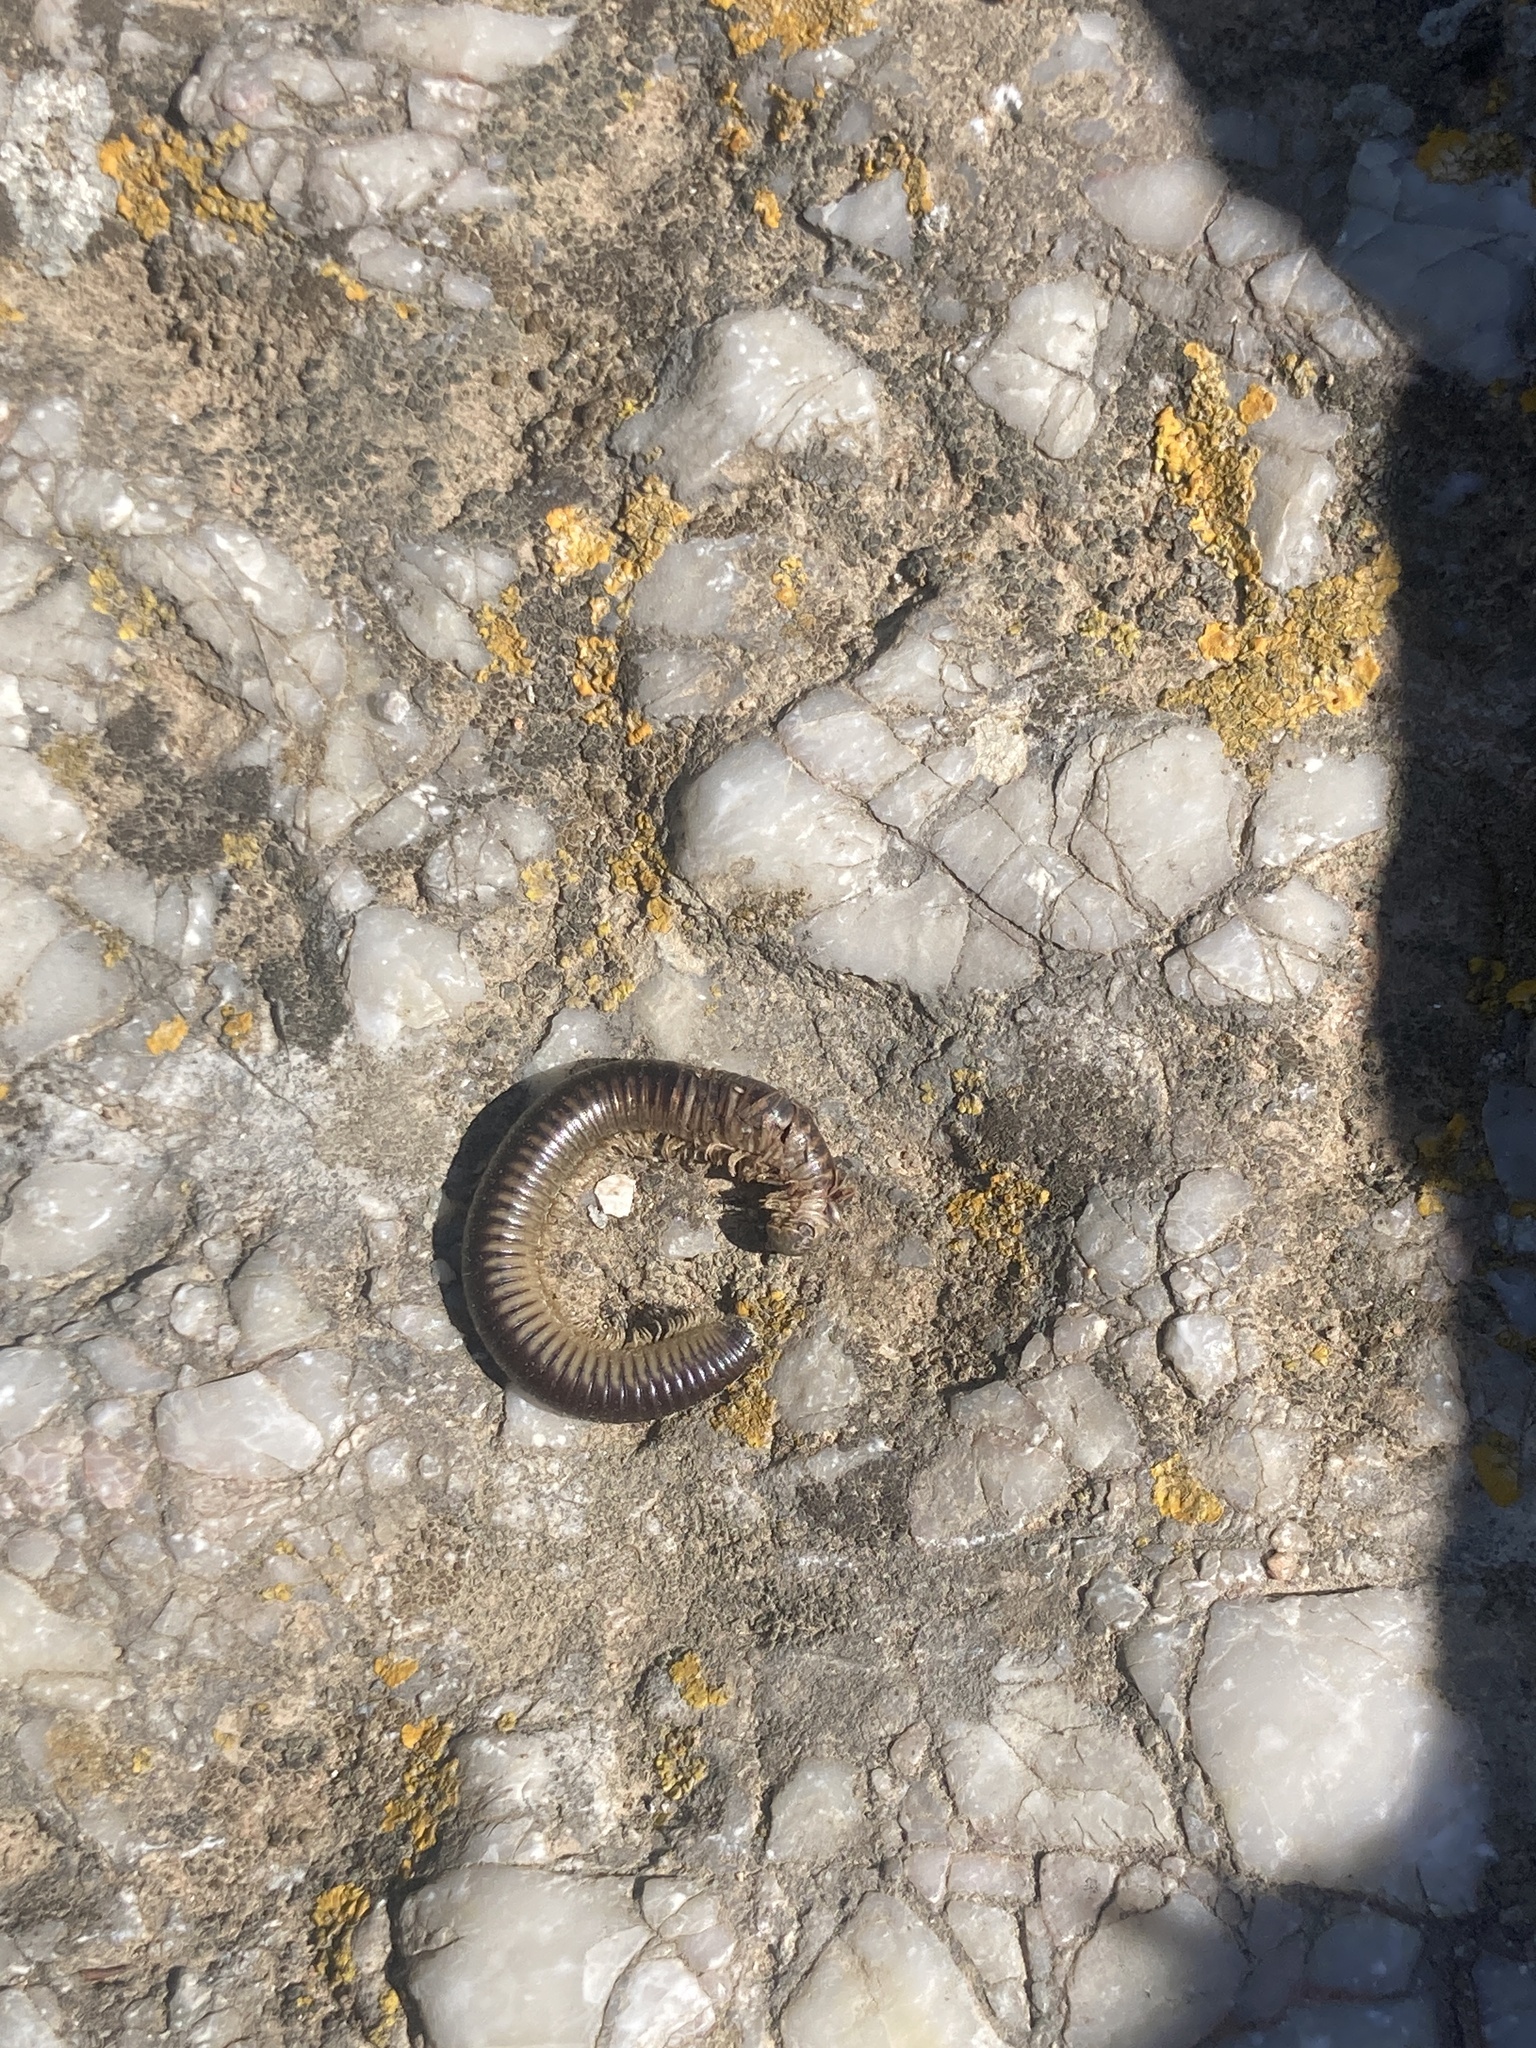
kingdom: Animalia
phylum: Arthropoda
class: Diplopoda
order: Julida
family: Julidae
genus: Pachyiulus
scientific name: Pachyiulus flavipes
